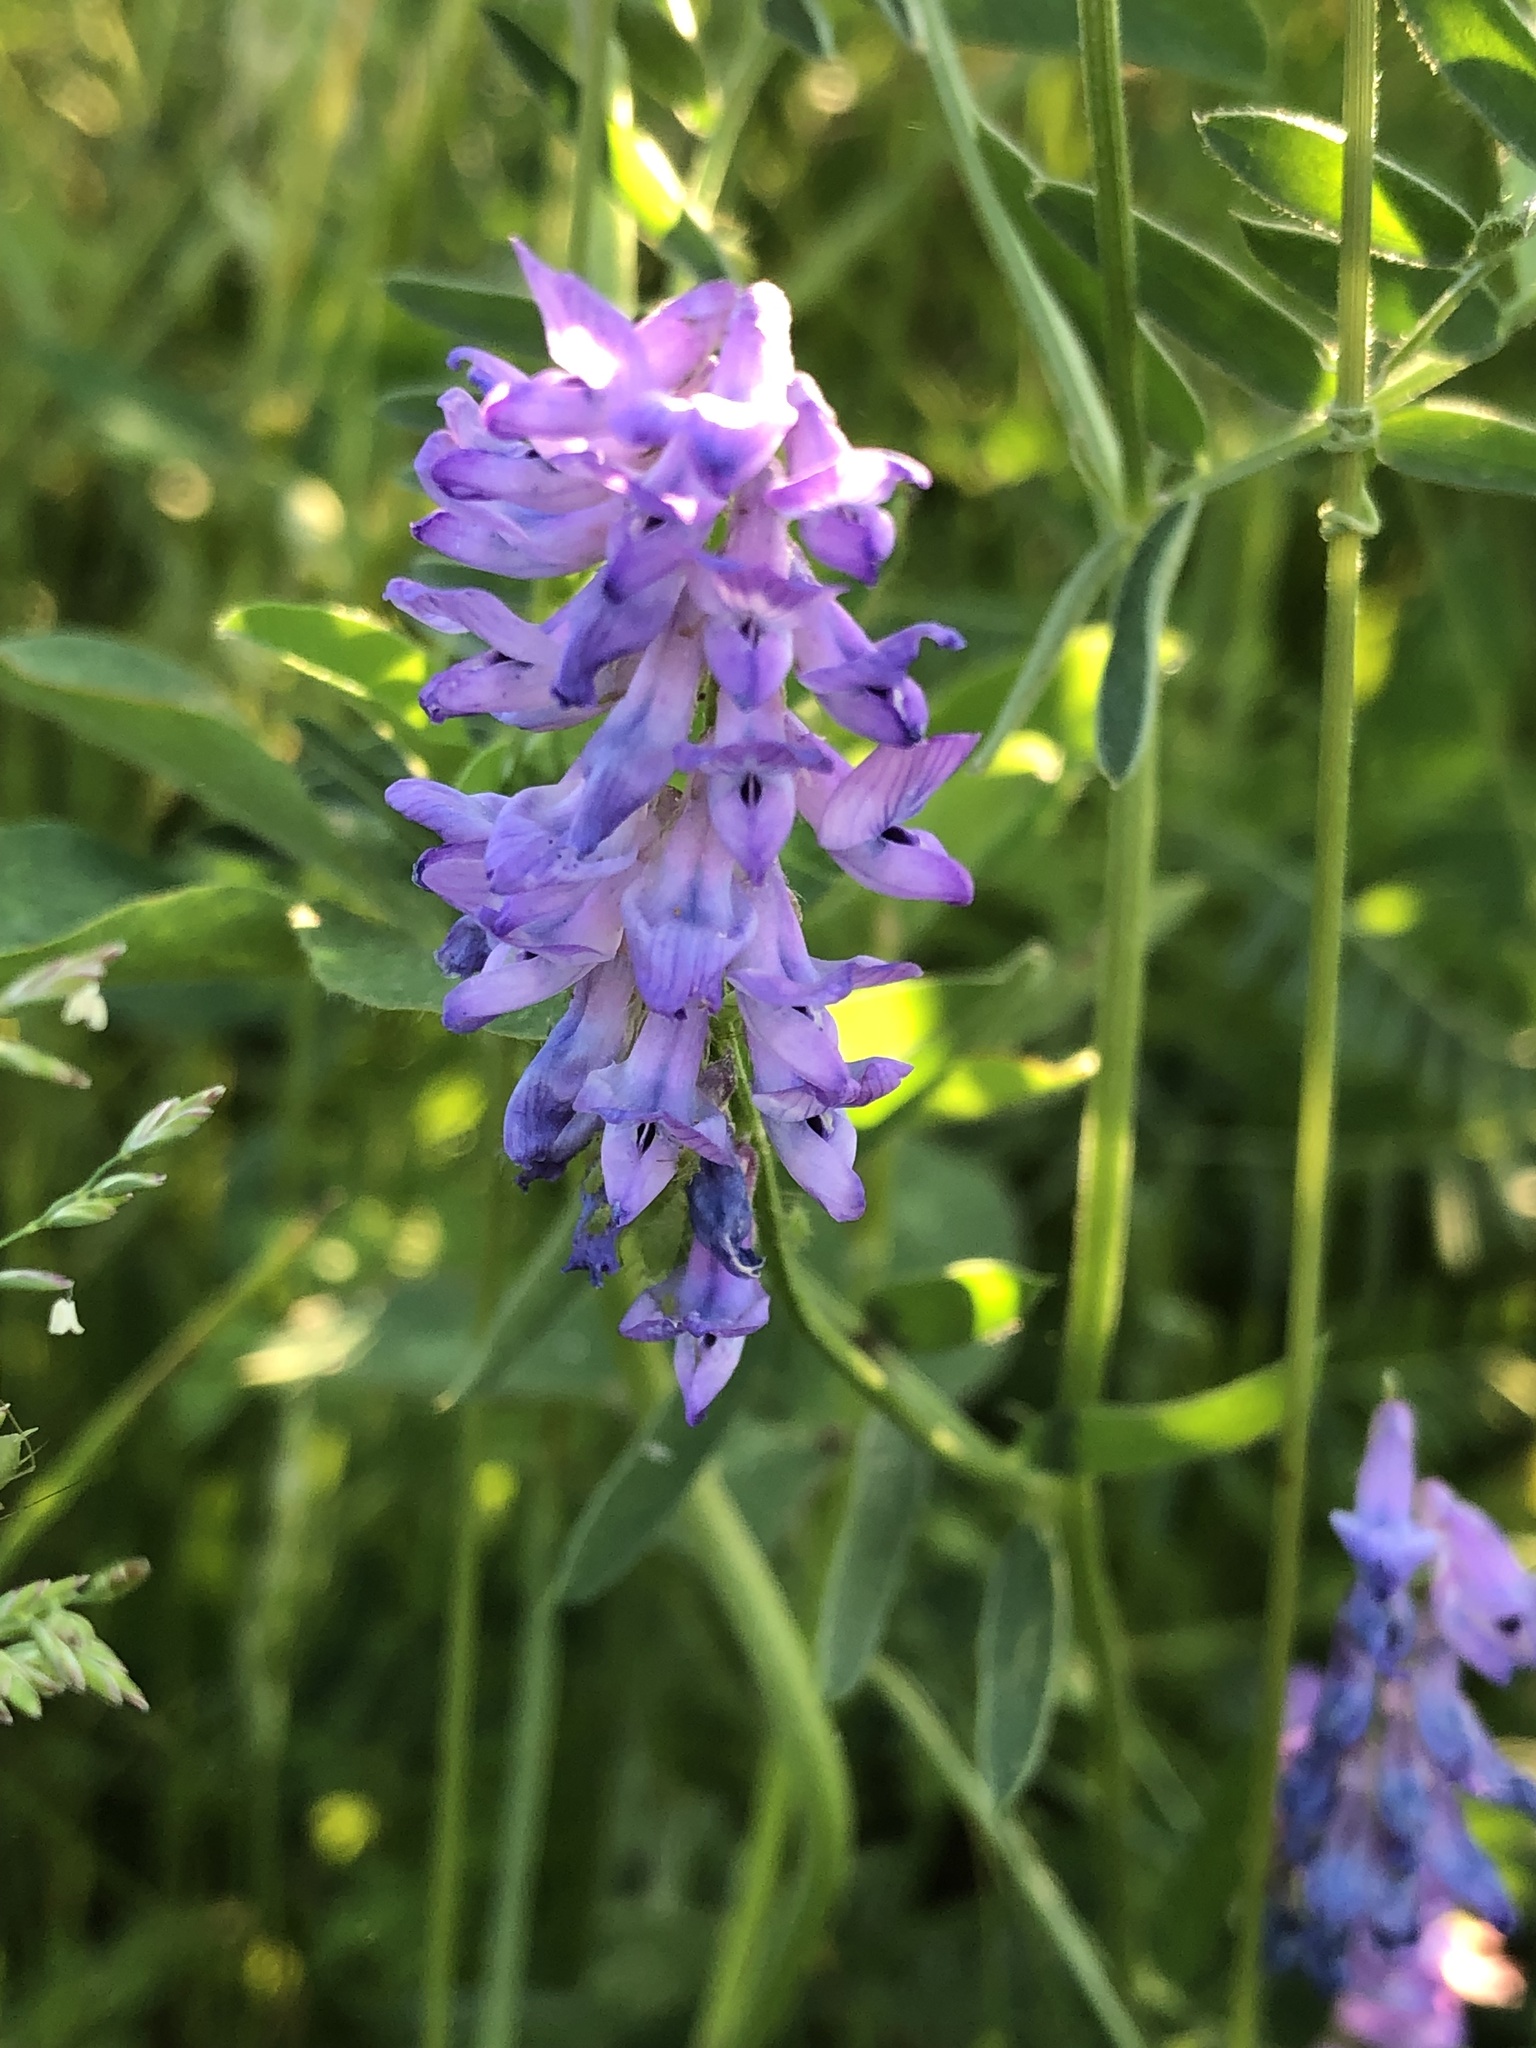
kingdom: Plantae
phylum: Tracheophyta
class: Magnoliopsida
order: Fabales
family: Fabaceae
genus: Vicia
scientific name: Vicia cracca
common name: Bird vetch
